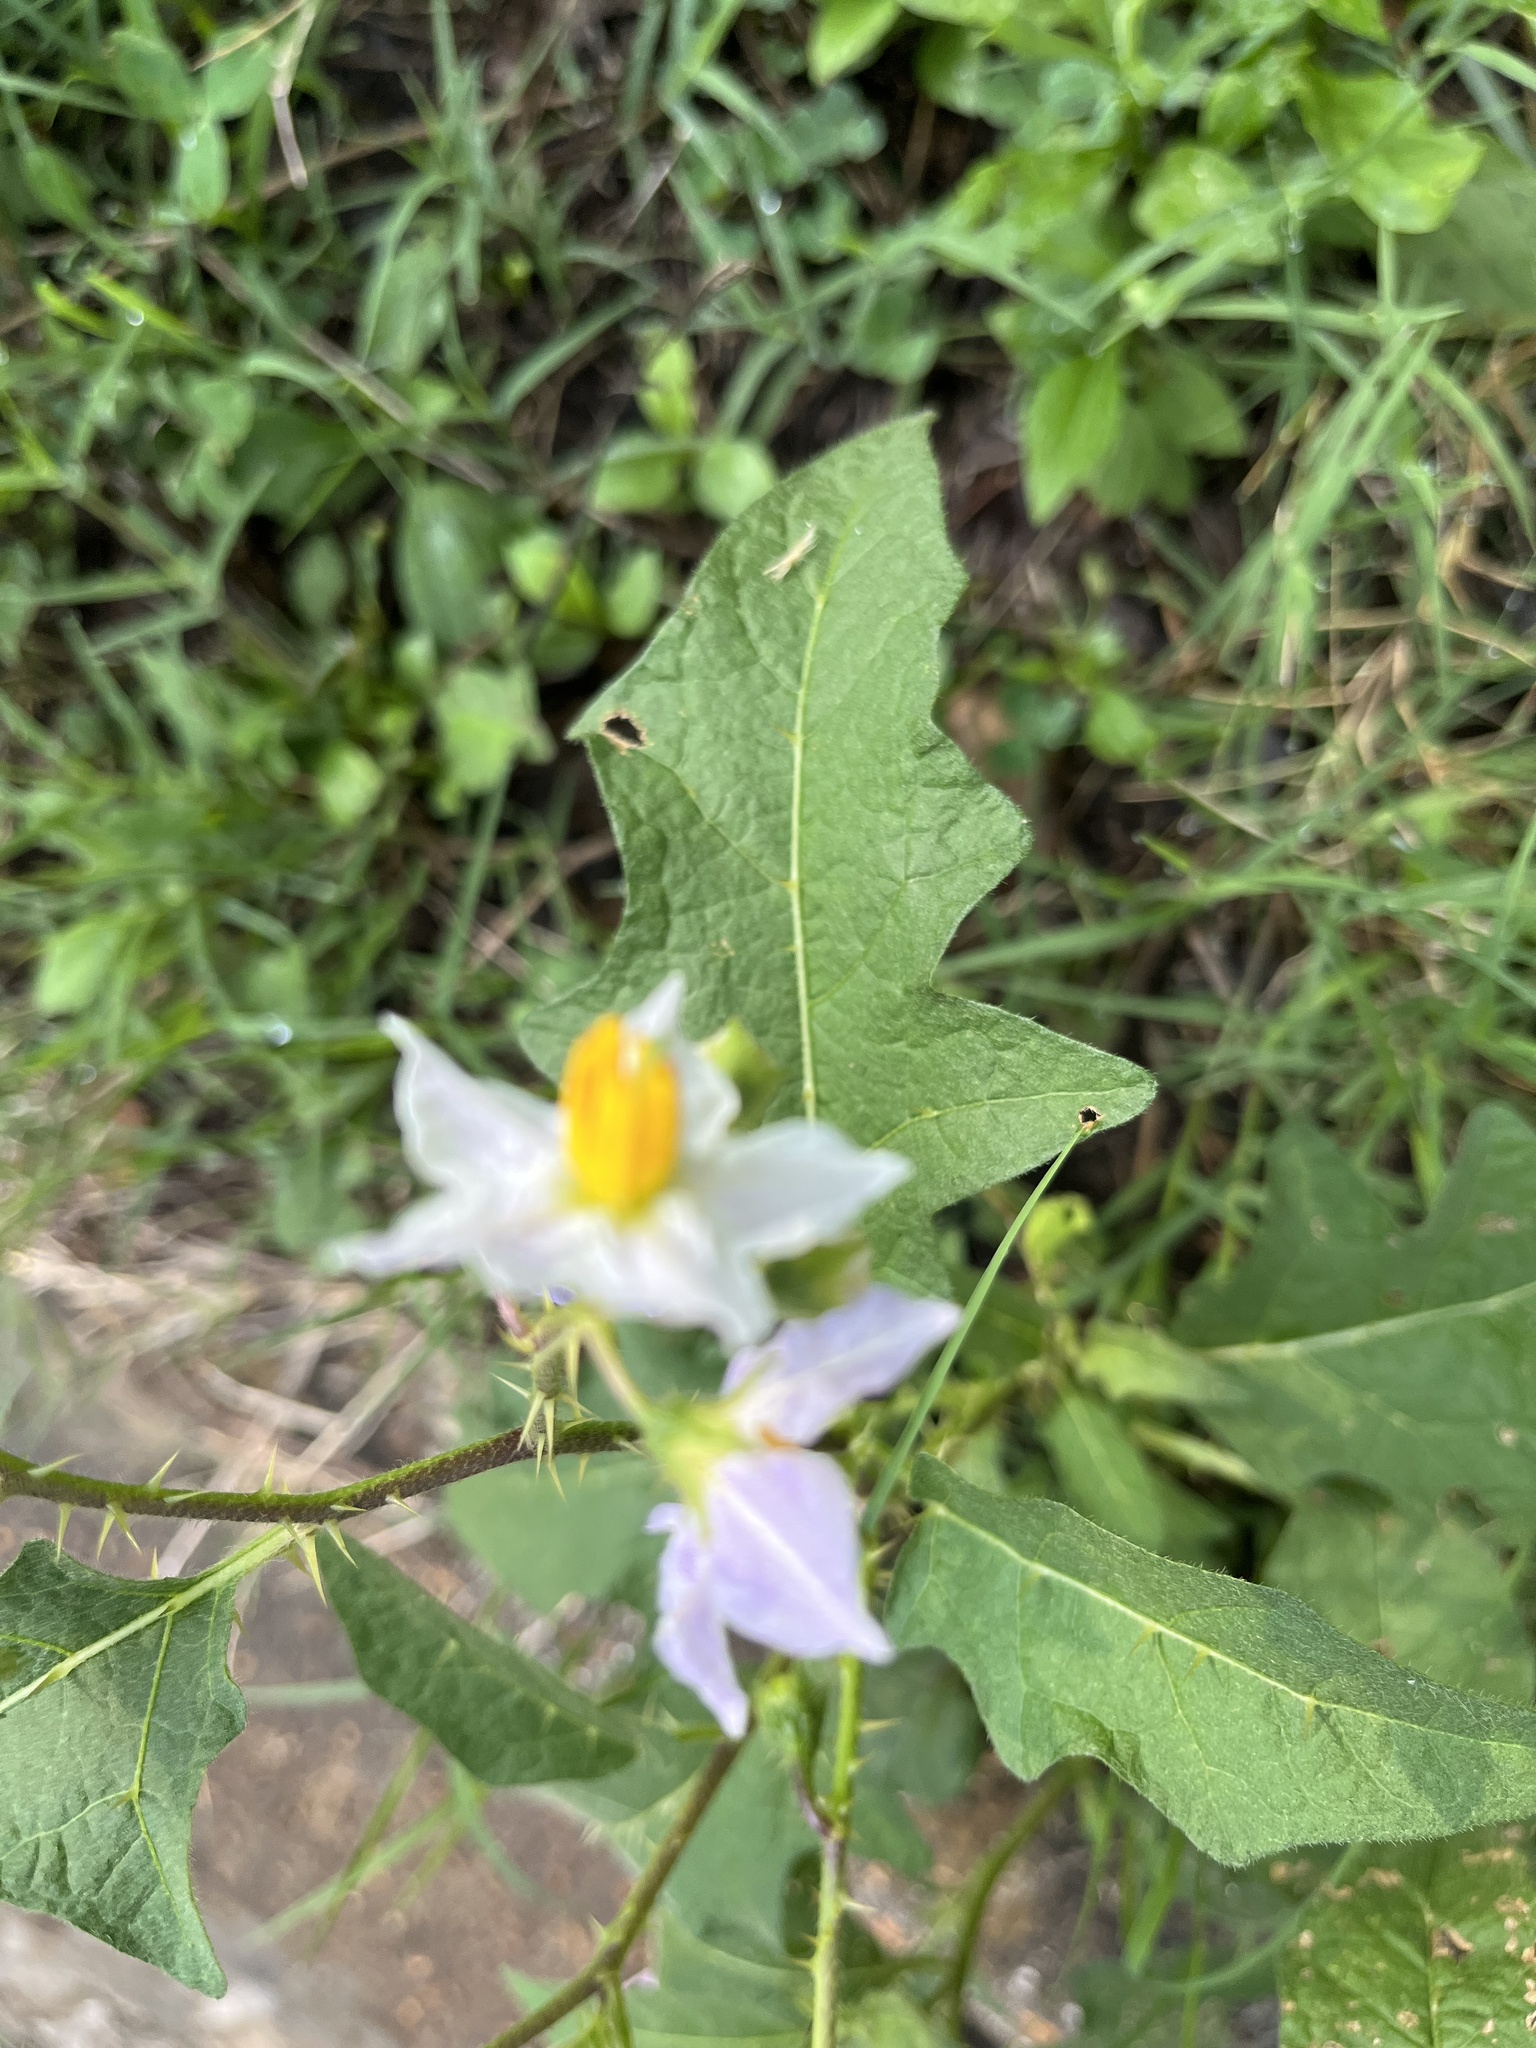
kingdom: Plantae
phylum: Tracheophyta
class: Magnoliopsida
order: Solanales
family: Solanaceae
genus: Solanum
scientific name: Solanum carolinense
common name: Horse-nettle
